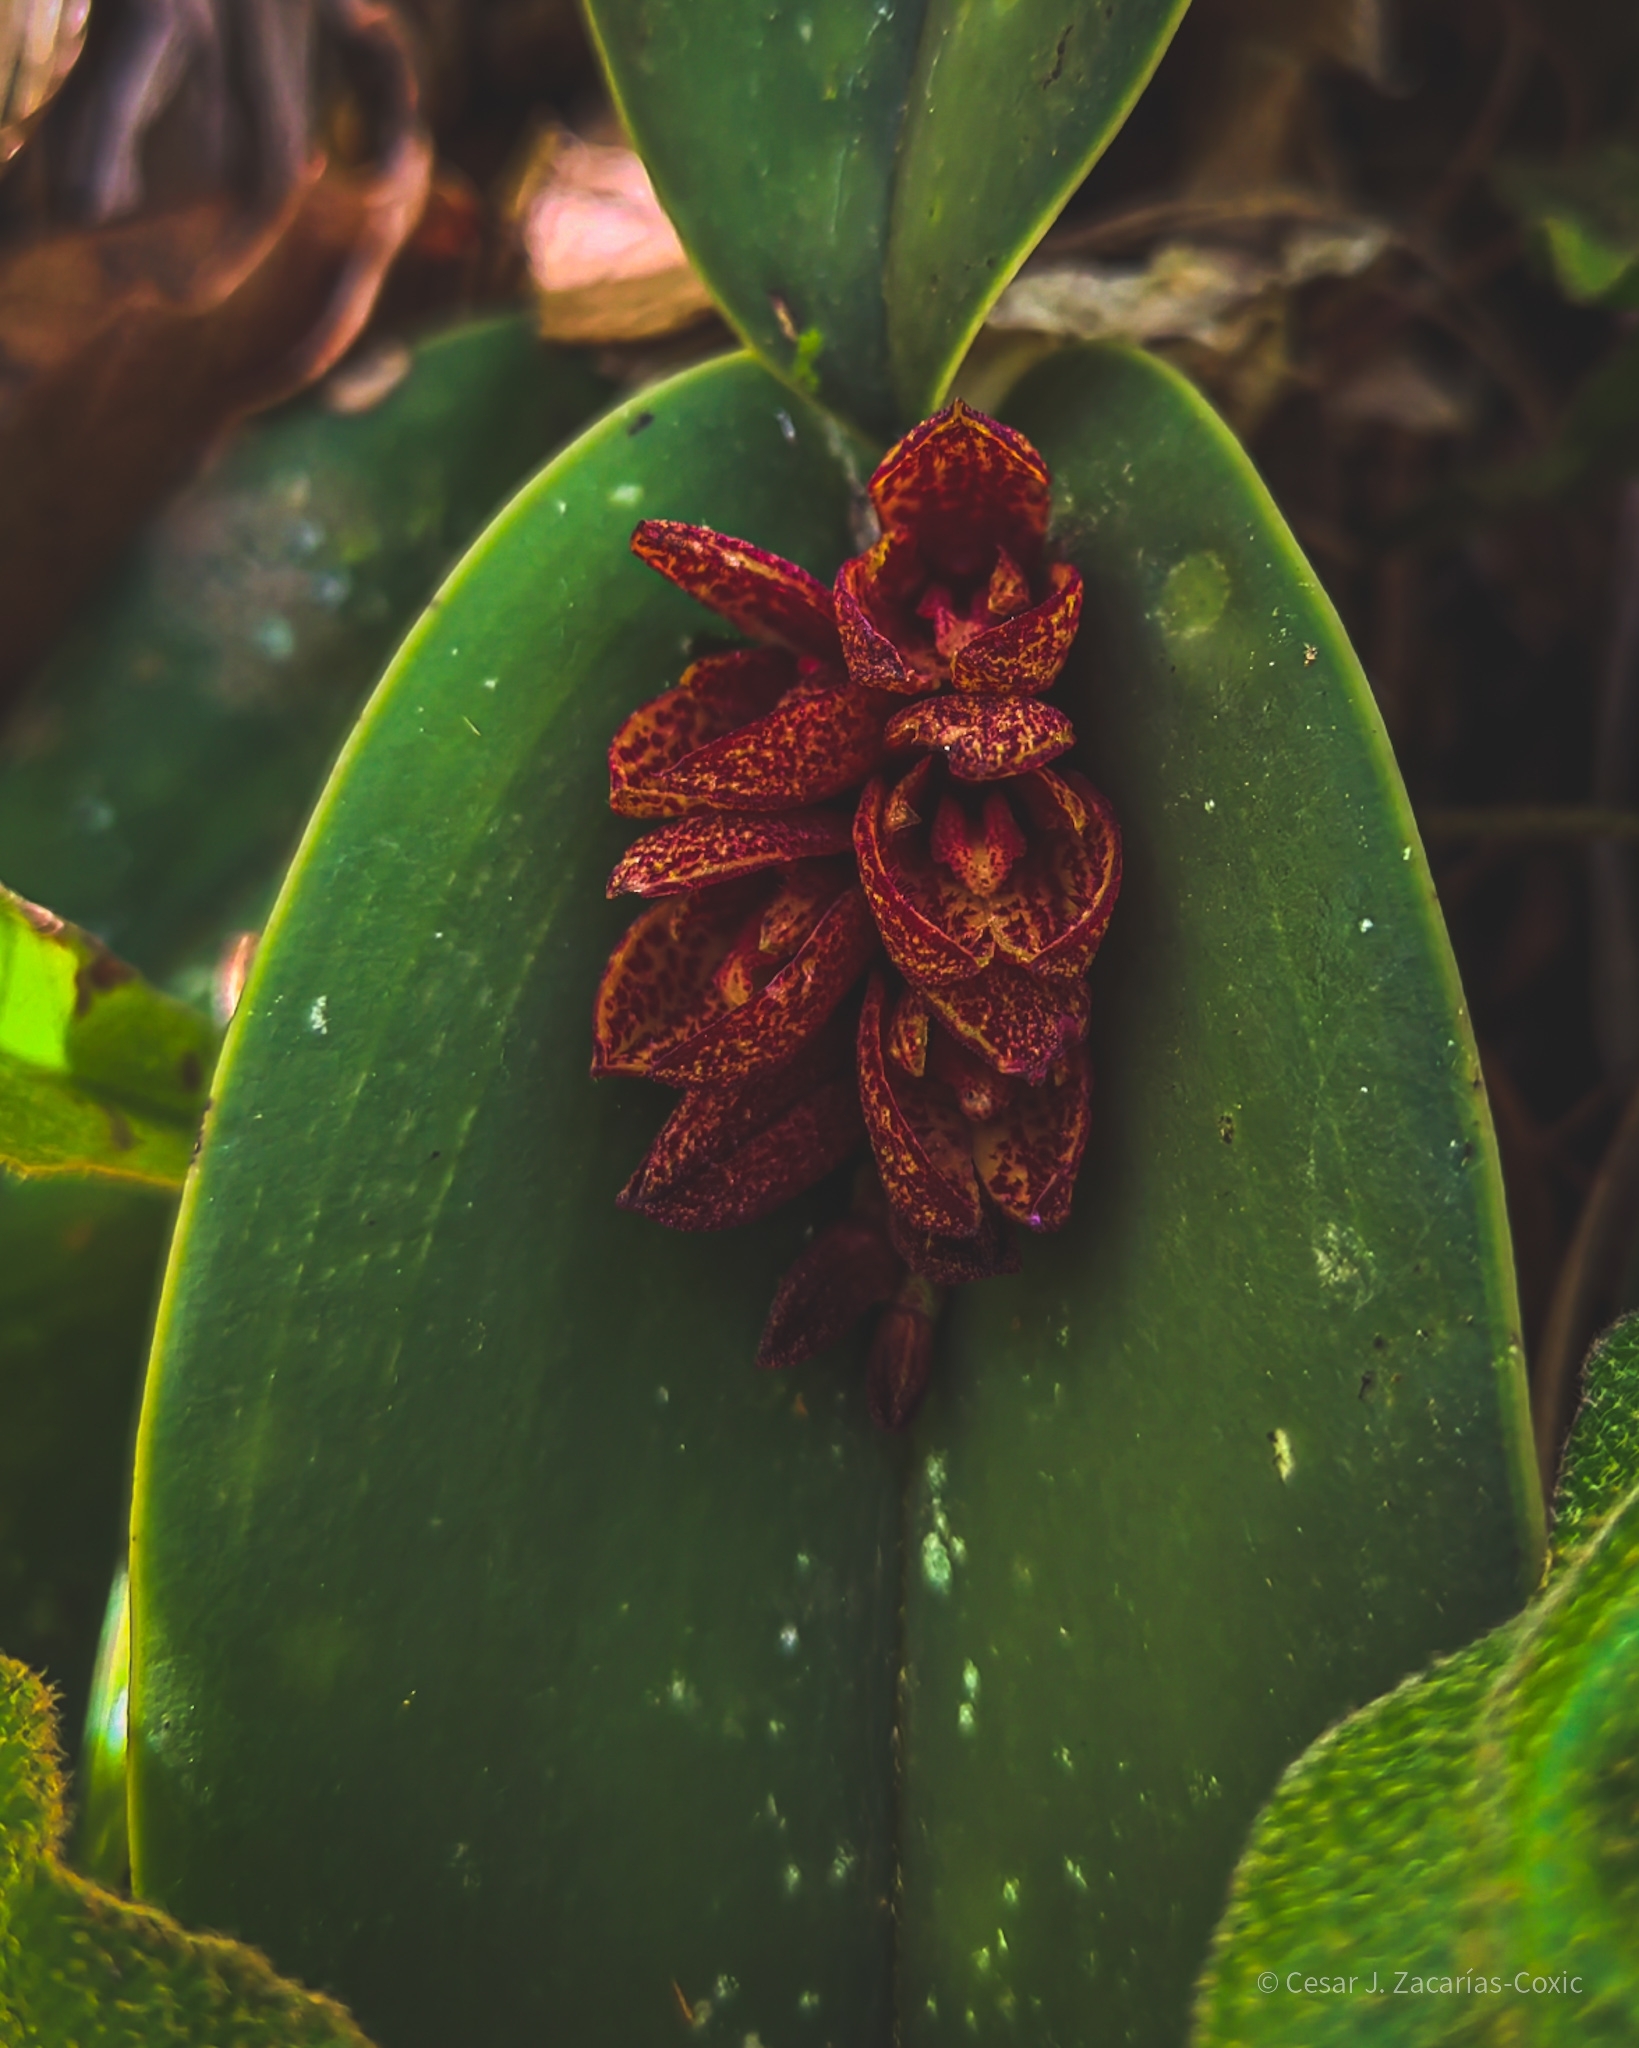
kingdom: Plantae
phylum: Tracheophyta
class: Liliopsida
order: Asparagales
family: Orchidaceae
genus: Acianthera
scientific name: Acianthera johnsonii
